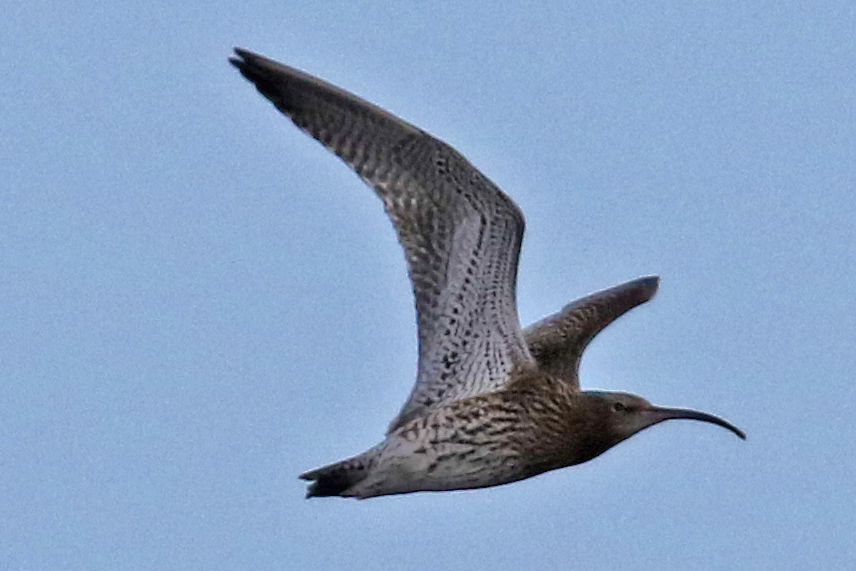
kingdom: Animalia
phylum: Chordata
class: Aves
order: Charadriiformes
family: Scolopacidae
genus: Numenius
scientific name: Numenius arquata
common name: Eurasian curlew
